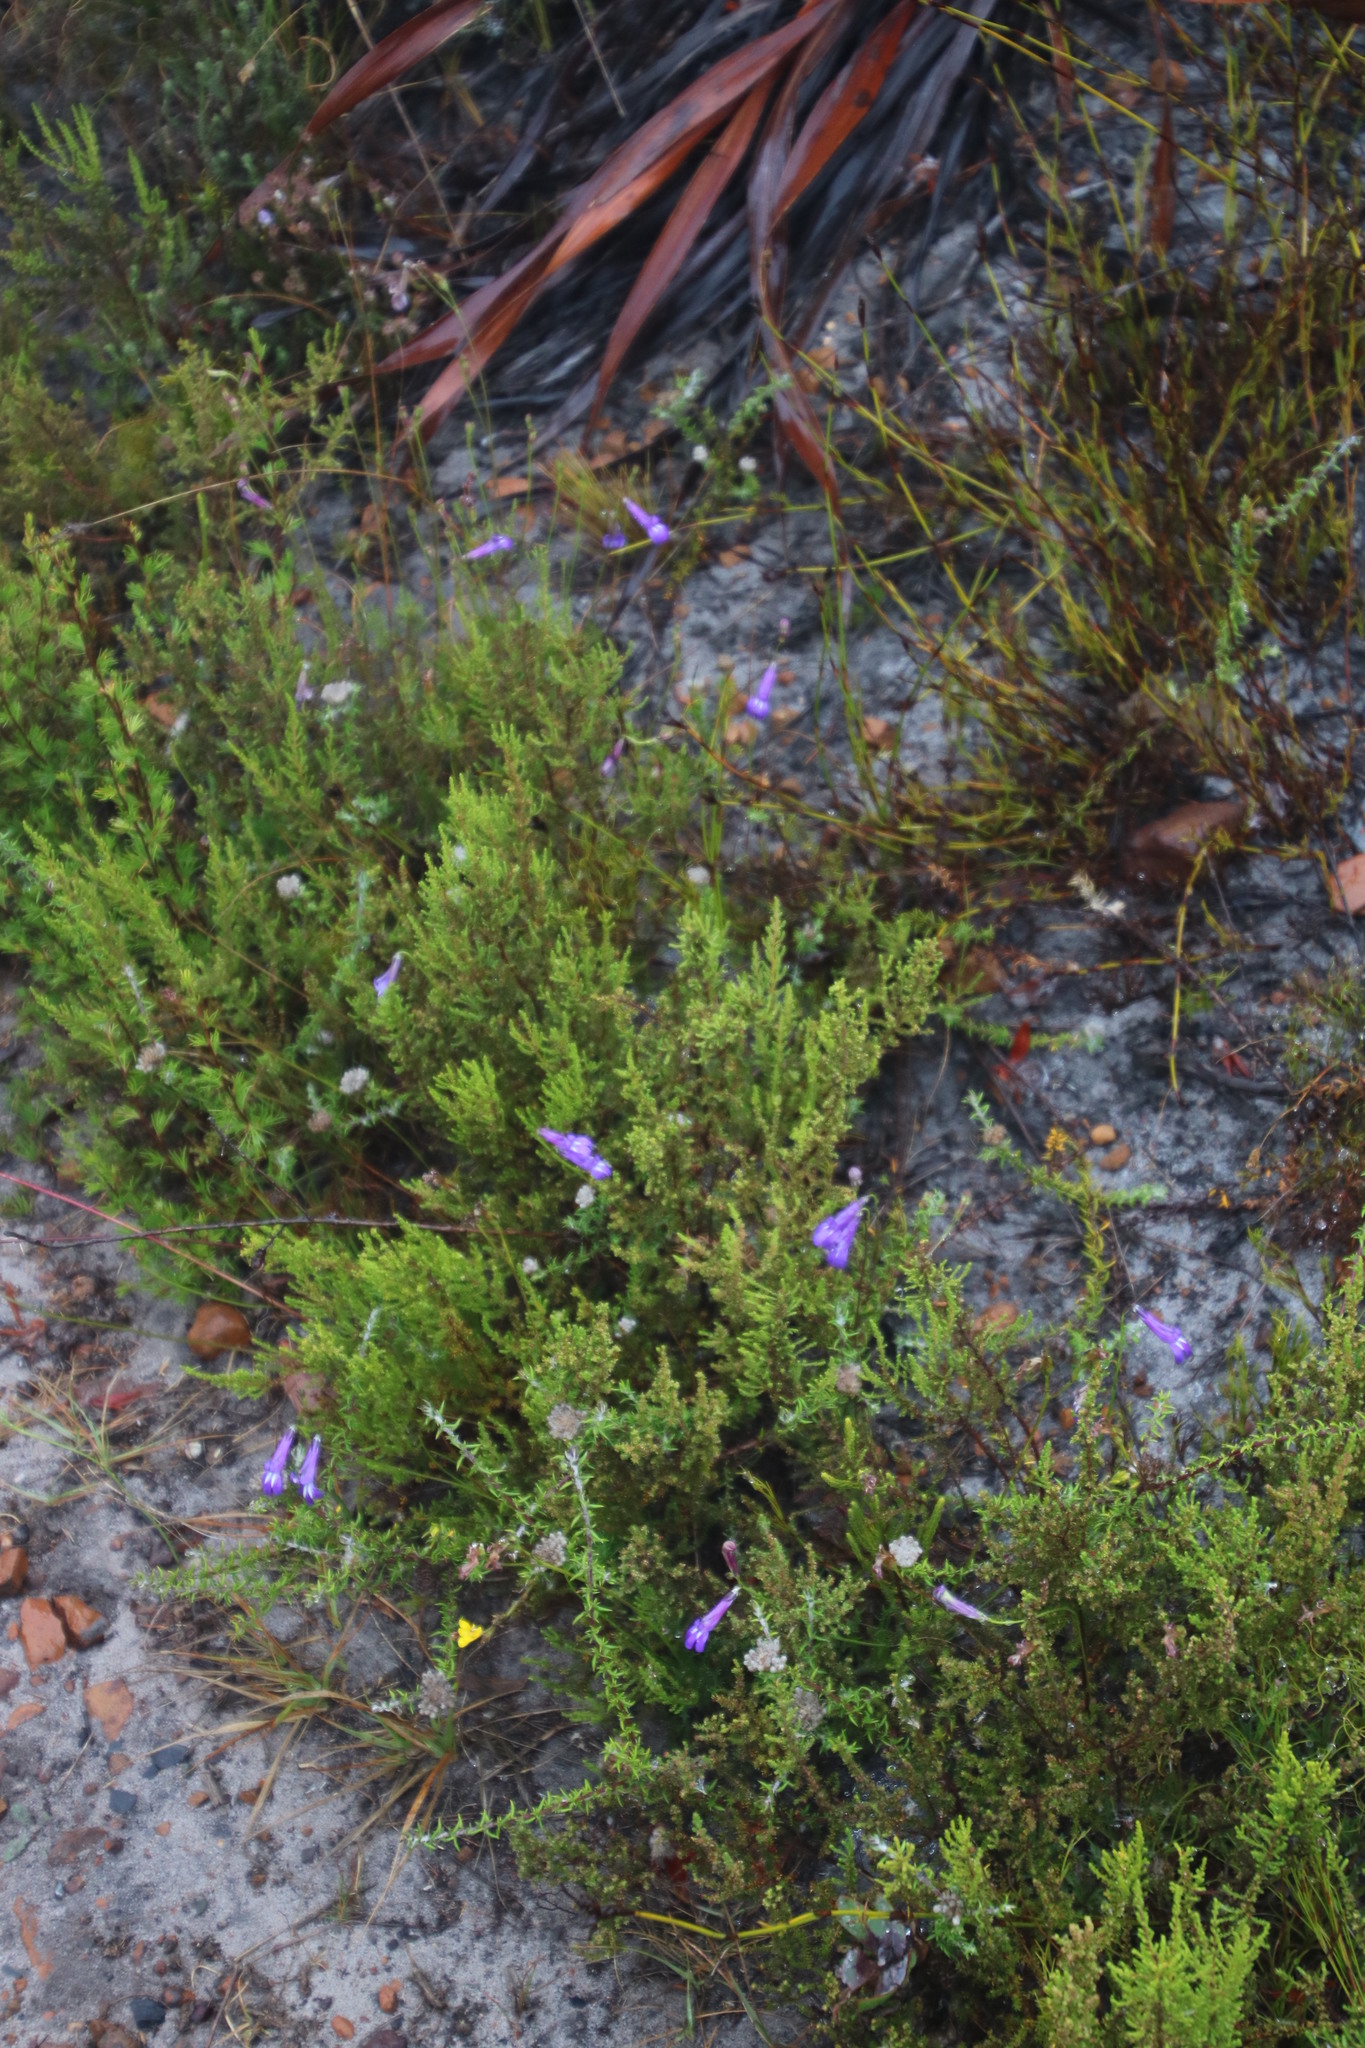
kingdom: Plantae
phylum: Tracheophyta
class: Magnoliopsida
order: Asterales
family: Campanulaceae
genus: Lobelia
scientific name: Lobelia coronopifolia
